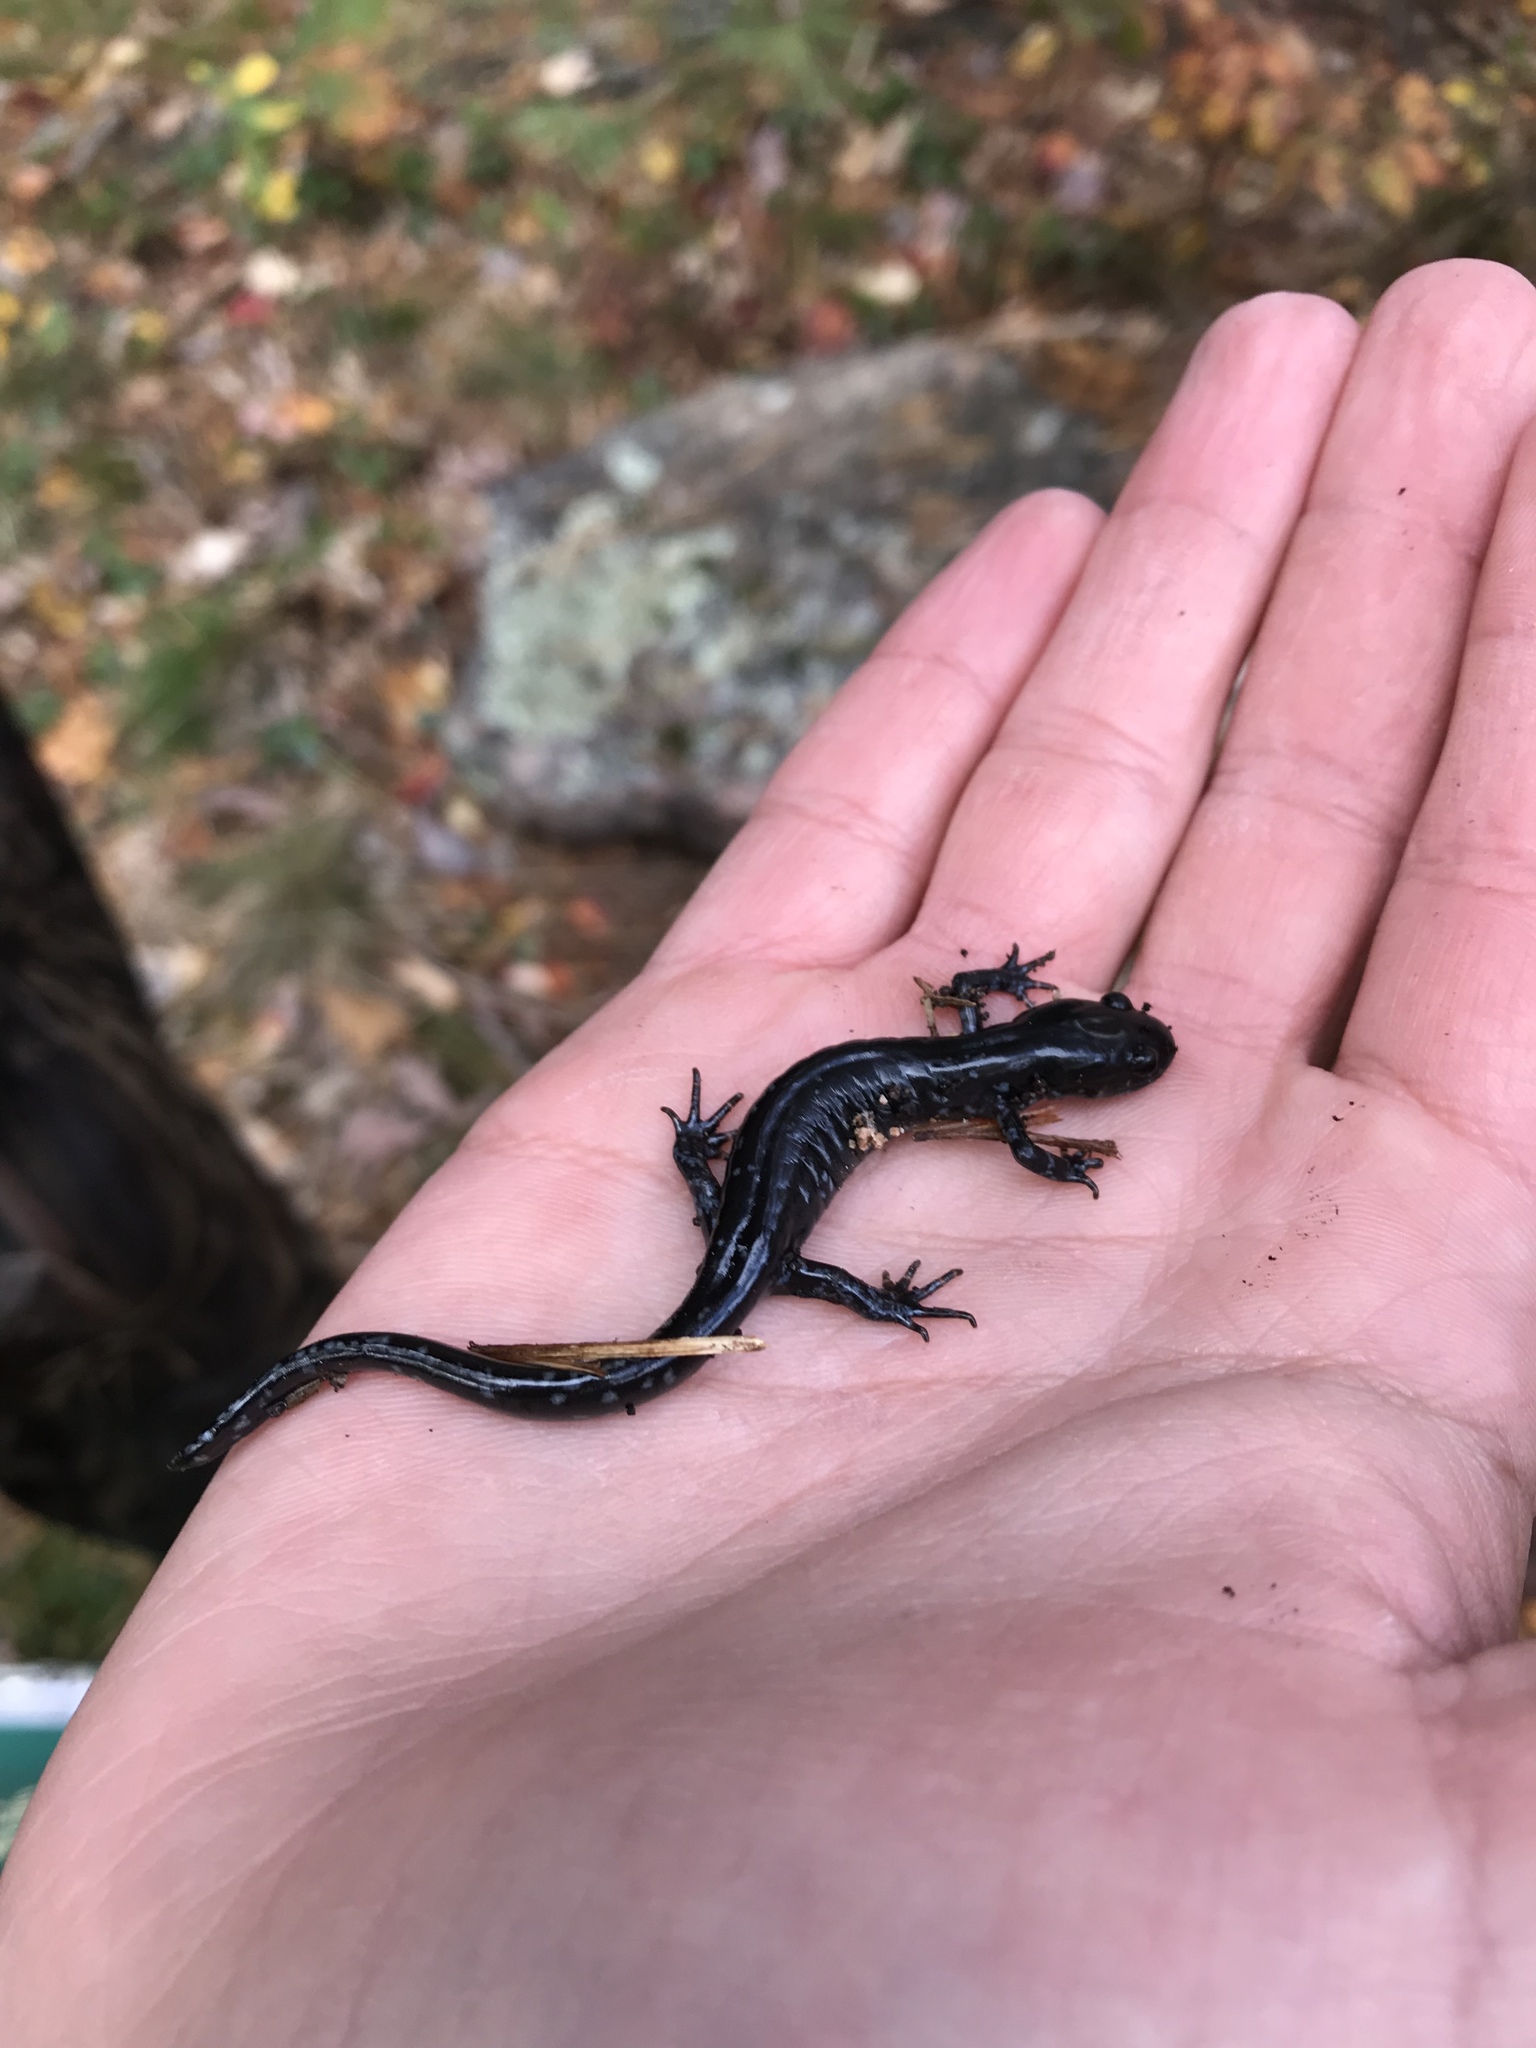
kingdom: Animalia
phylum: Chordata
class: Amphibia
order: Caudata
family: Ambystomatidae
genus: Ambystoma
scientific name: Ambystoma laterale
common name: Blue-spotted salamander
